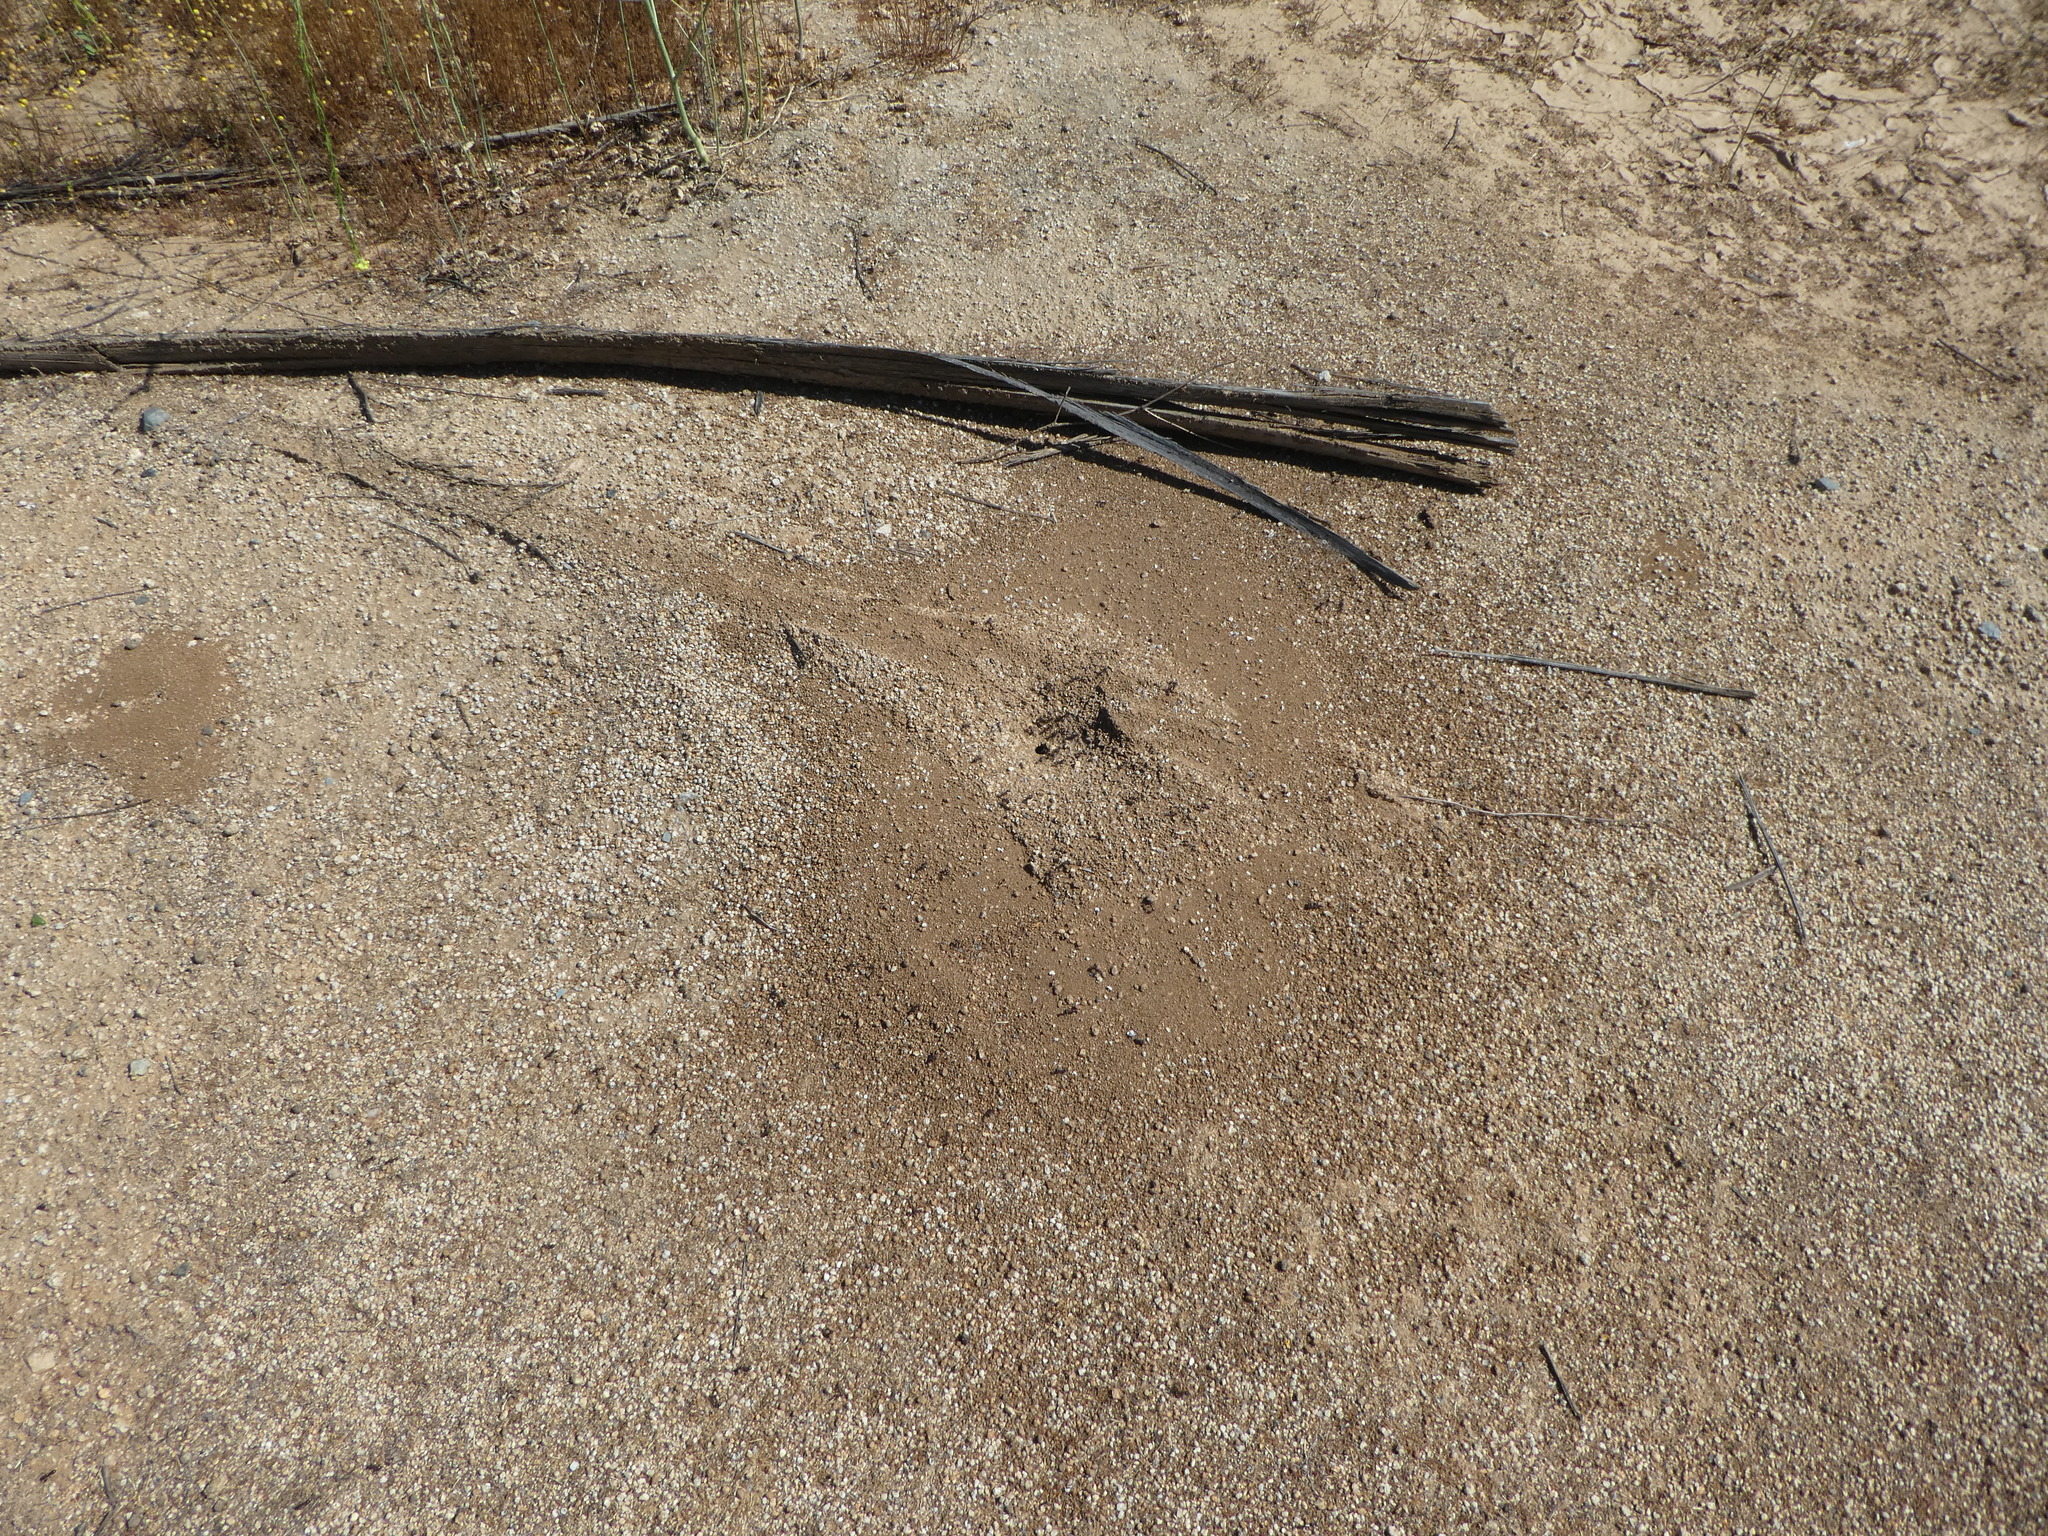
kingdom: Animalia
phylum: Arthropoda
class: Insecta
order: Hymenoptera
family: Formicidae
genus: Pogonomyrmex
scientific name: Pogonomyrmex rugosus
